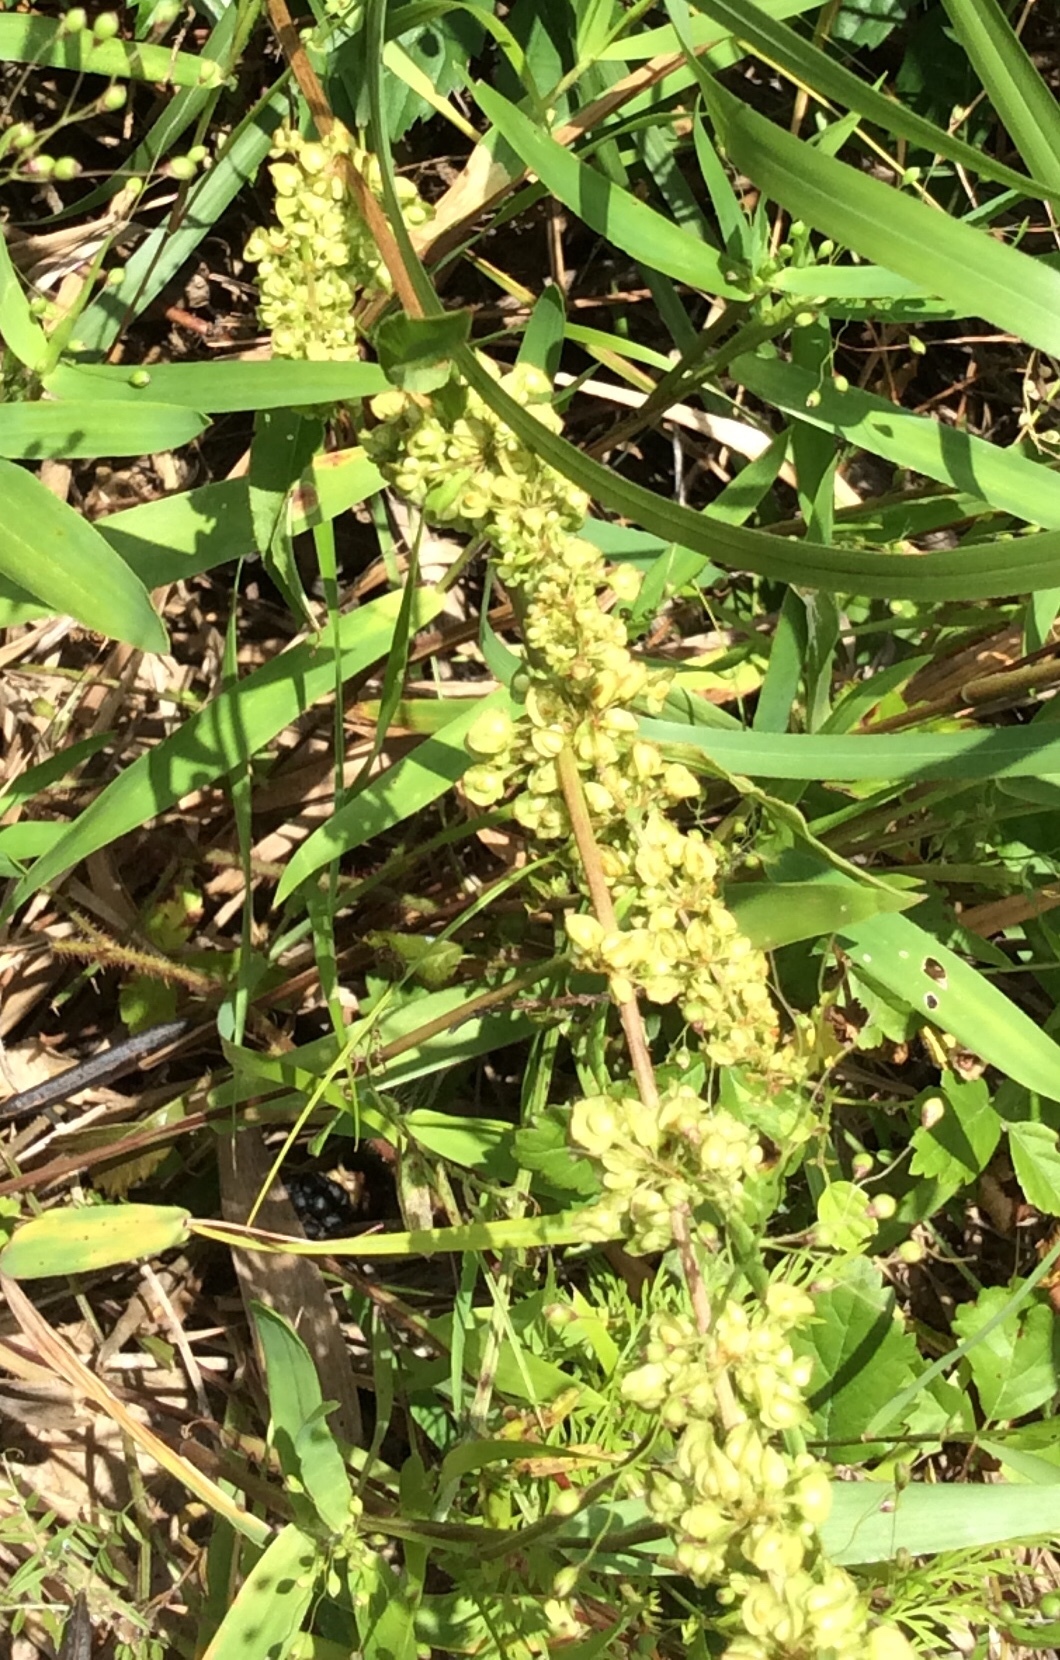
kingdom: Plantae
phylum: Tracheophyta
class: Magnoliopsida
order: Caryophyllales
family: Polygonaceae
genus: Rumex
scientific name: Rumex crispus
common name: Curled dock
